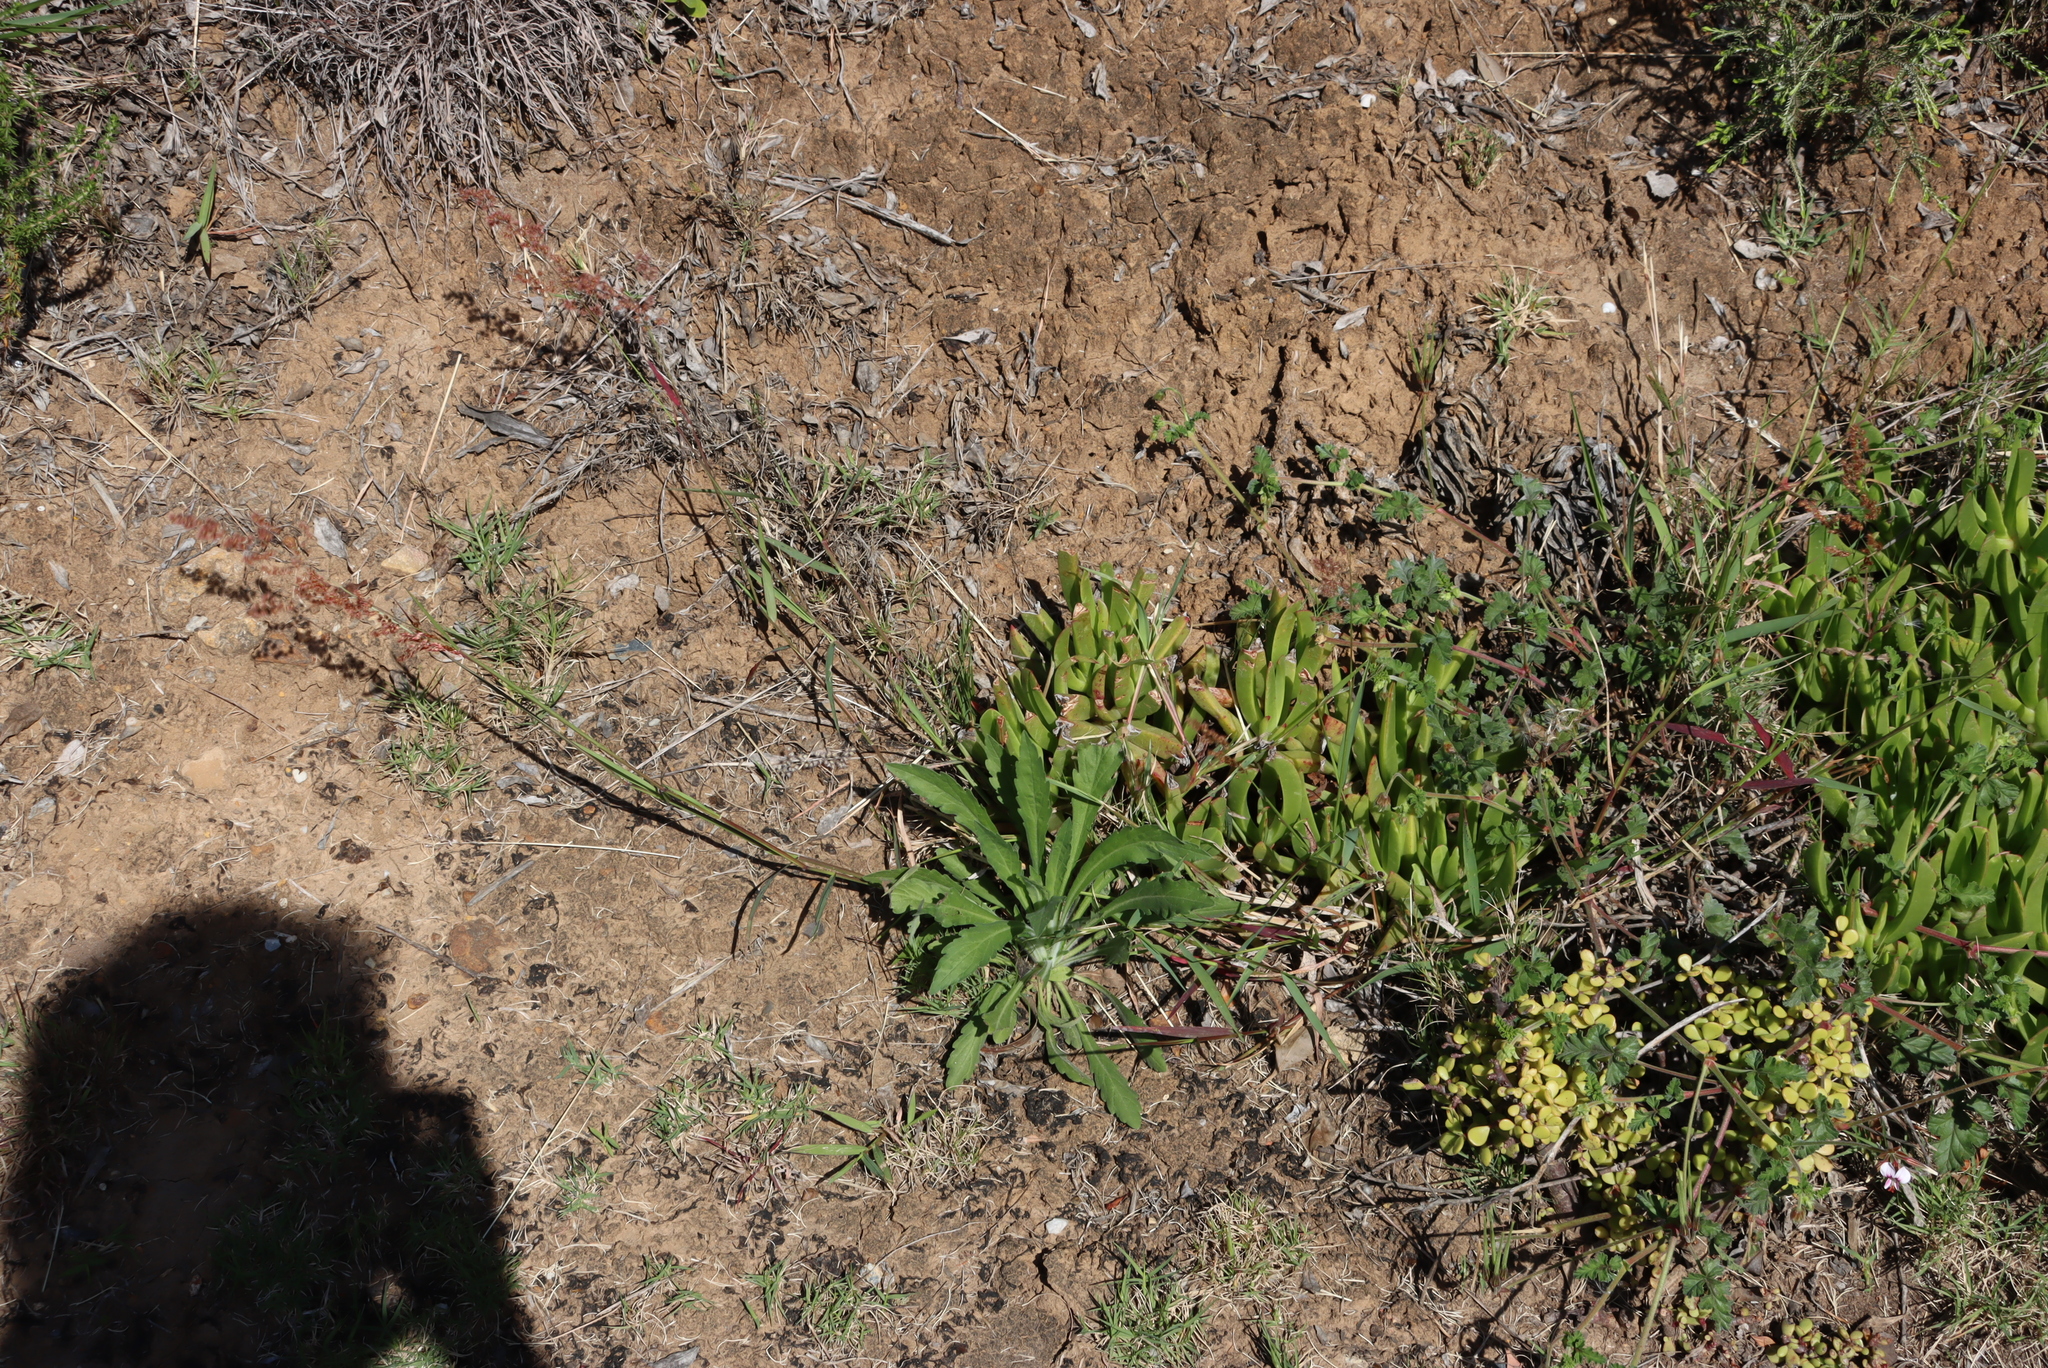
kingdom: Plantae
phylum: Tracheophyta
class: Magnoliopsida
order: Geraniales
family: Geraniaceae
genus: Pelargonium
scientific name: Pelargonium candicans
